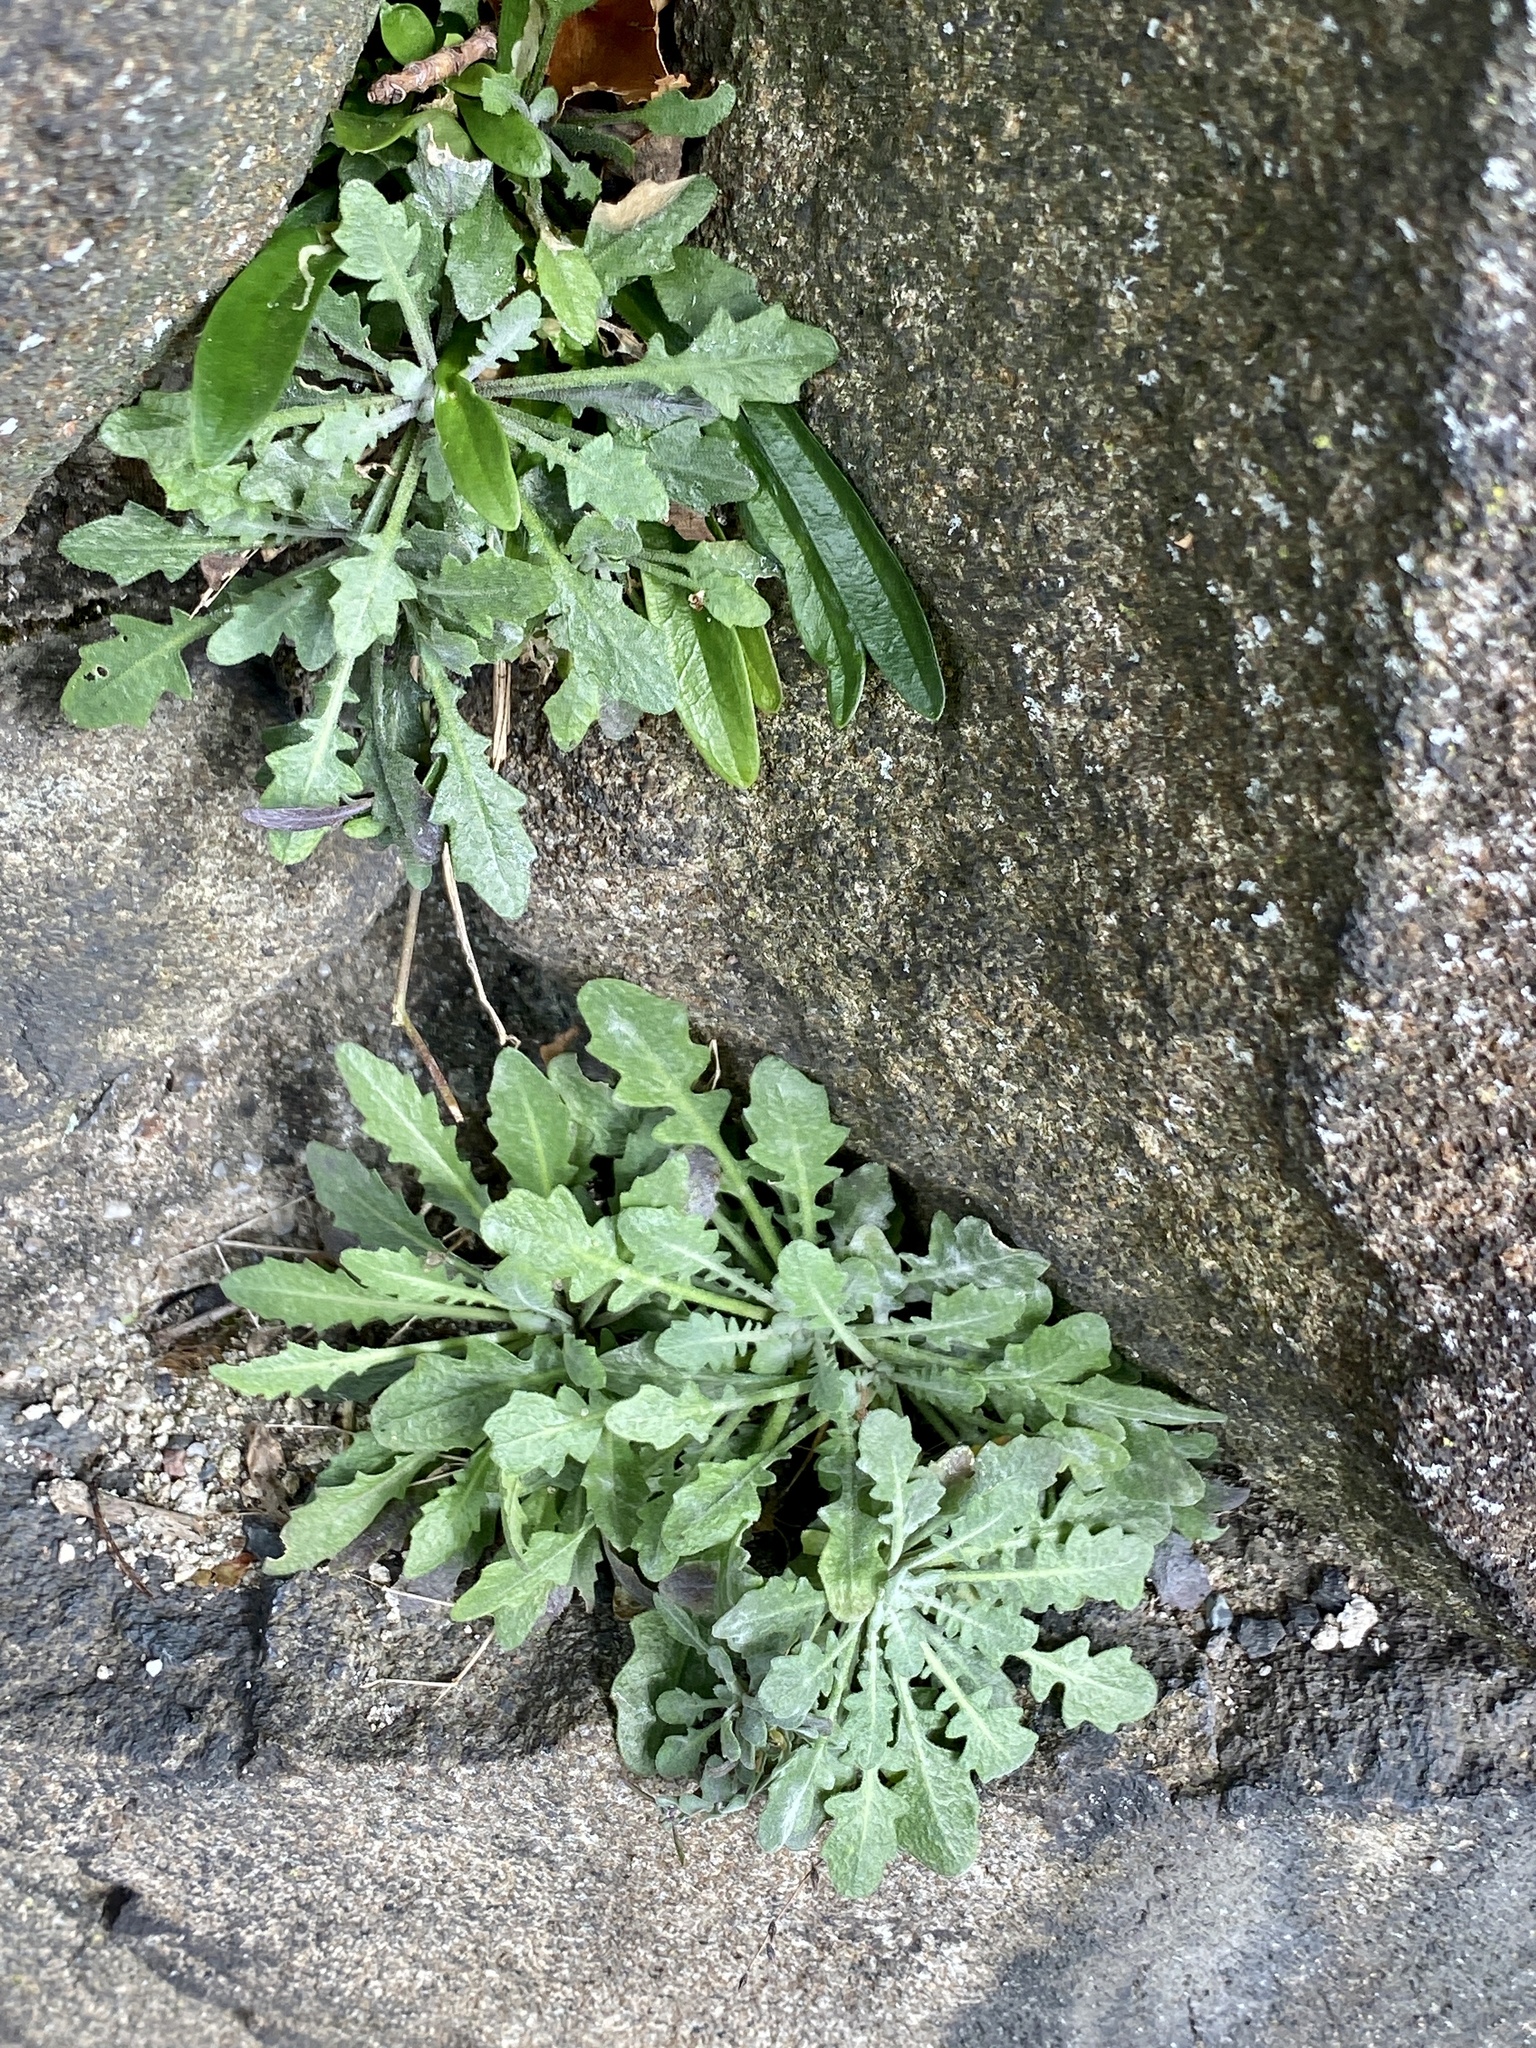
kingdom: Plantae
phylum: Tracheophyta
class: Magnoliopsida
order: Brassicales
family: Brassicaceae
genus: Arabidopsis
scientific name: Arabidopsis lyrata
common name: Lyrate rockcress
